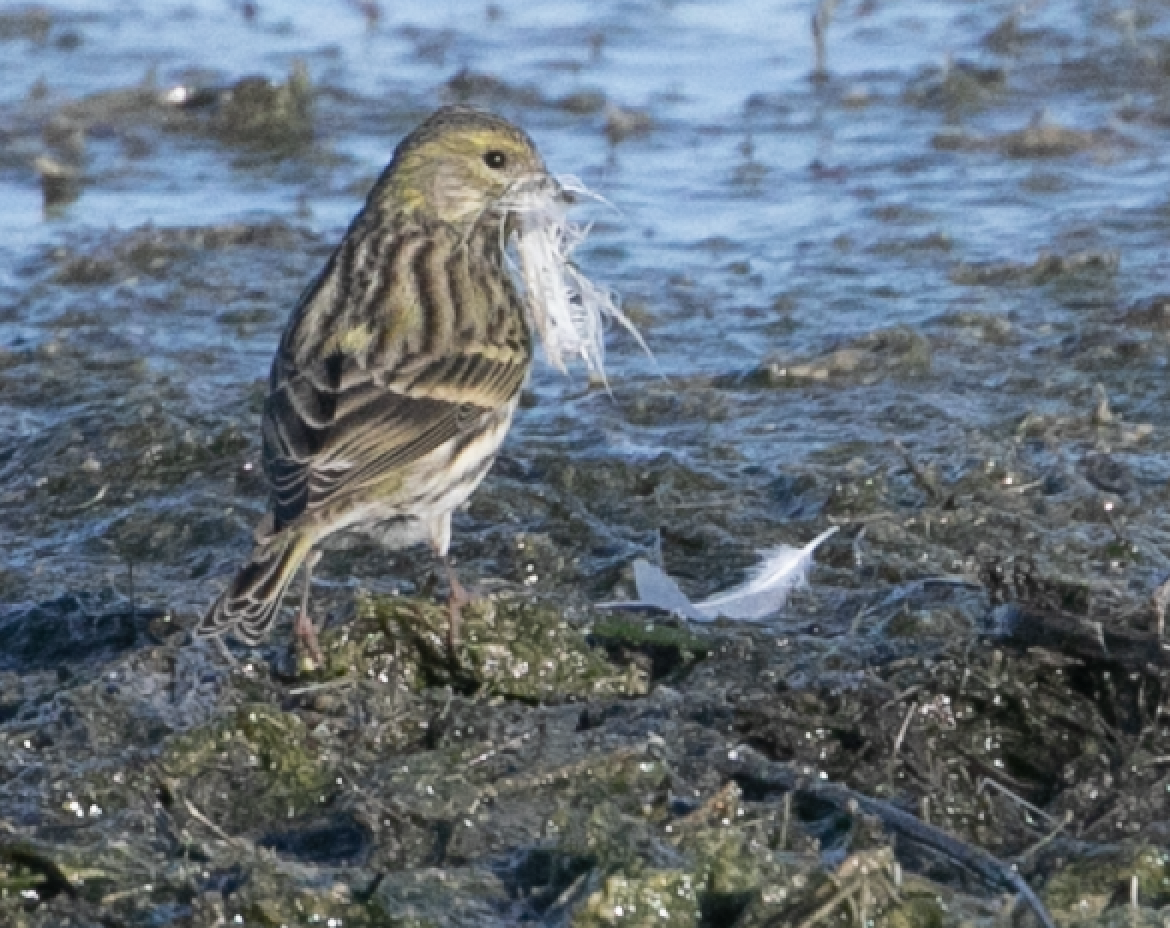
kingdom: Animalia
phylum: Chordata
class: Aves
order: Passeriformes
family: Fringillidae
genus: Serinus
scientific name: Serinus serinus
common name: European serin
